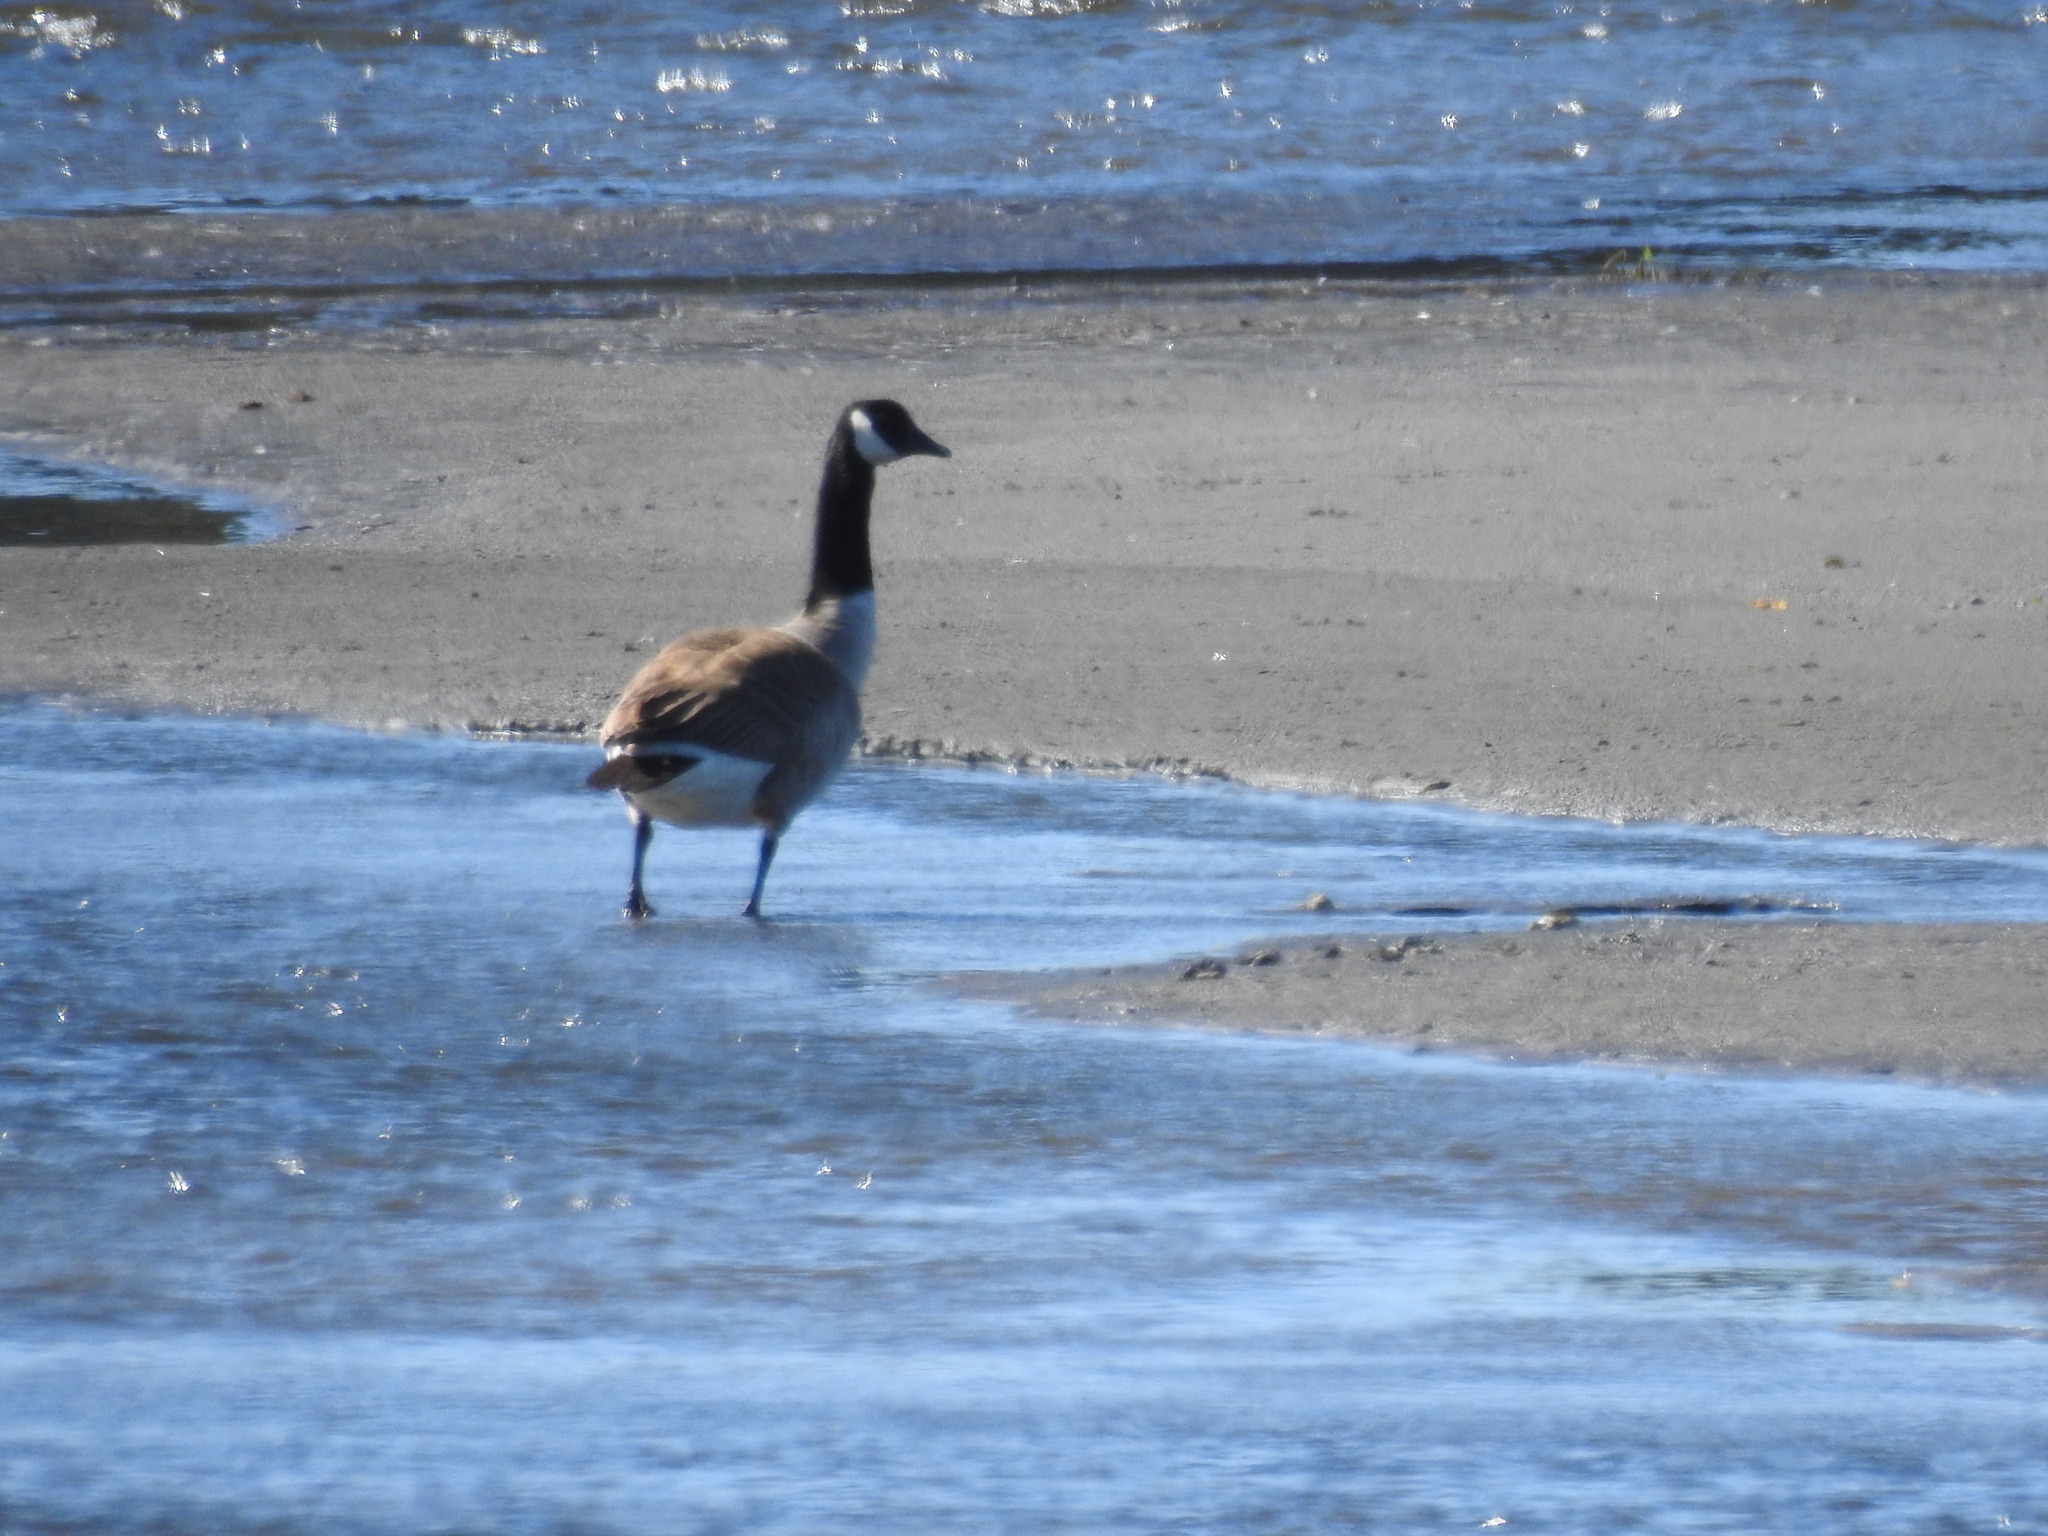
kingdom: Animalia
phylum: Chordata
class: Aves
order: Anseriformes
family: Anatidae
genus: Branta
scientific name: Branta canadensis
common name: Canada goose
